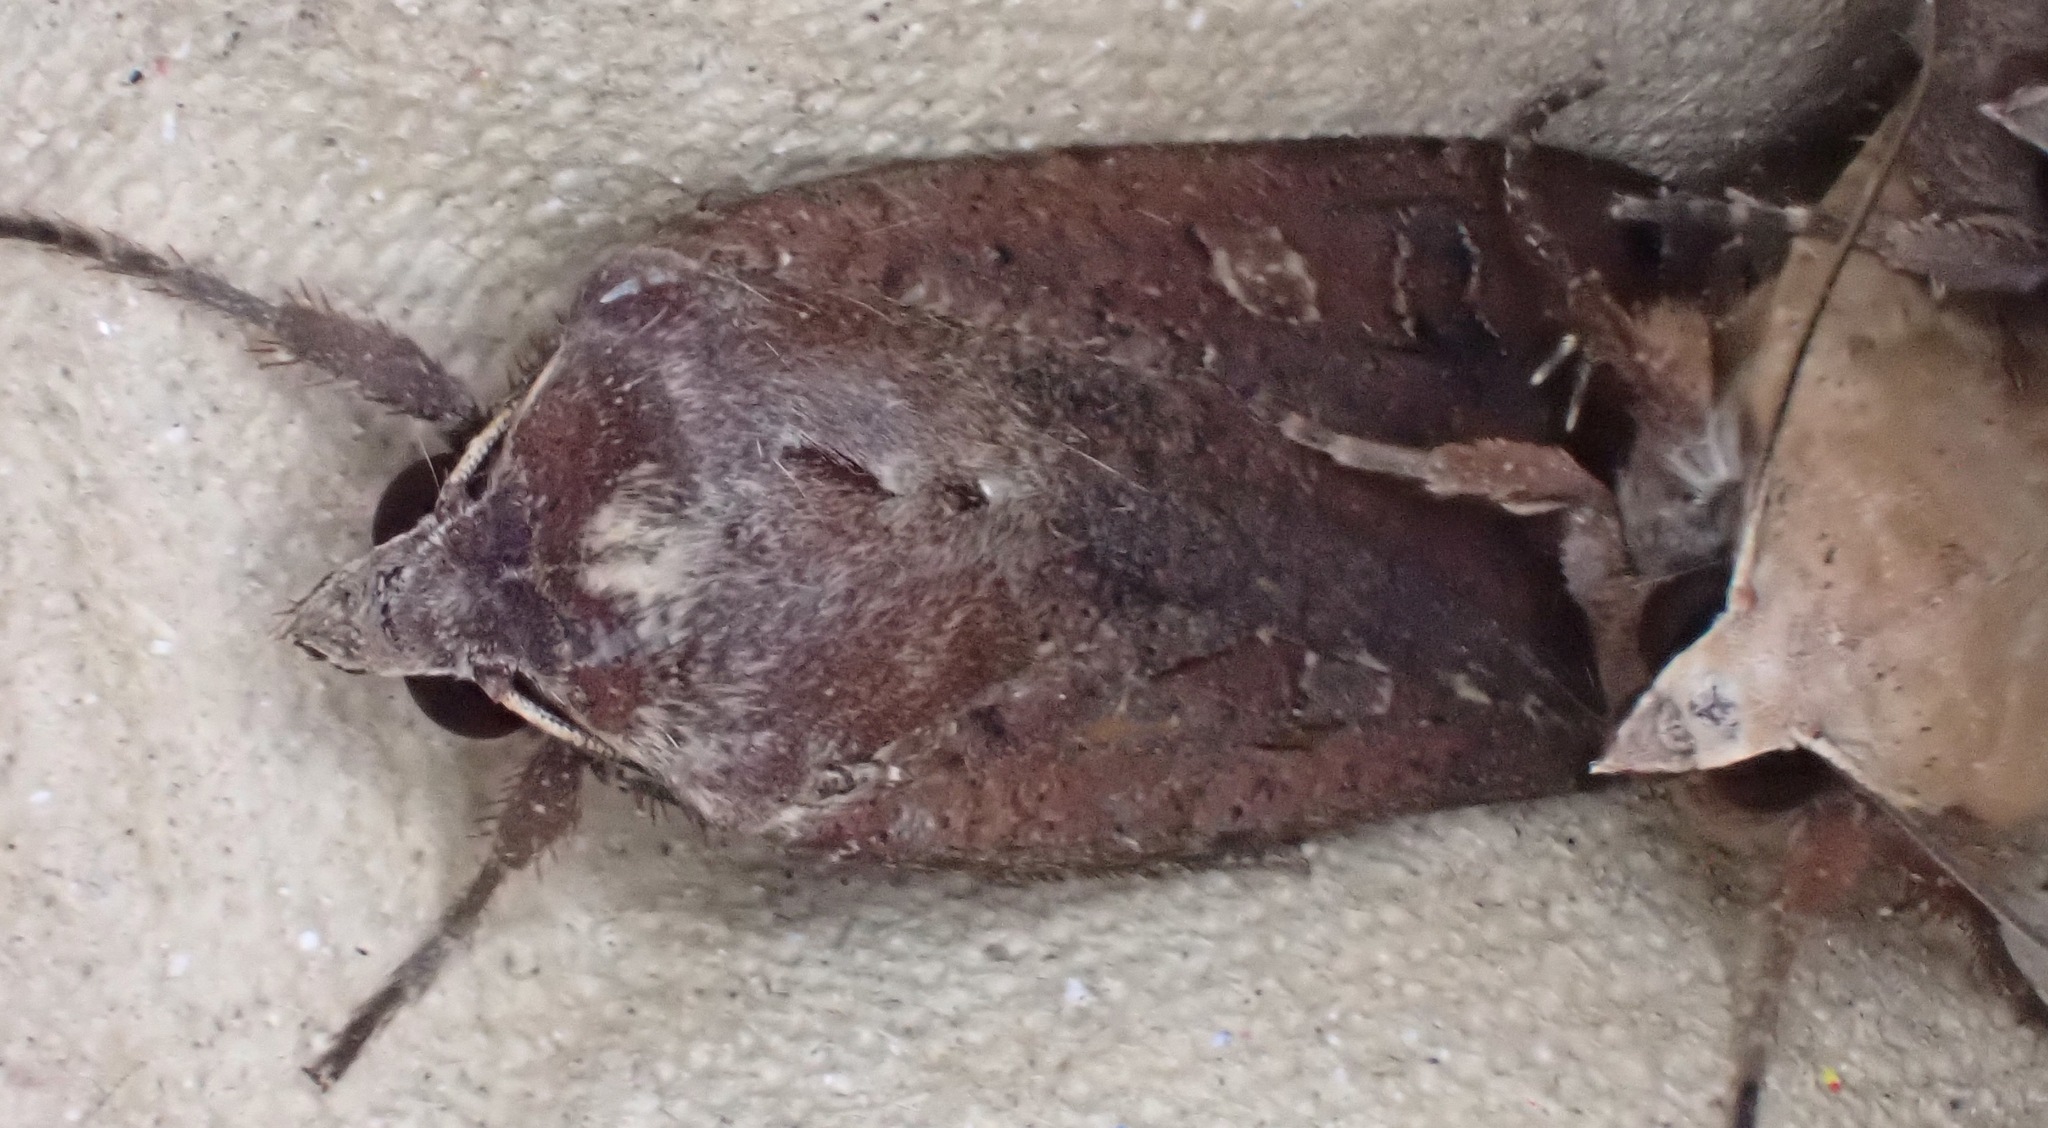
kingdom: Animalia
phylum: Arthropoda
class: Insecta
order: Lepidoptera
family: Noctuidae
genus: Noctua
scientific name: Noctua pronuba
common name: Large yellow underwing
